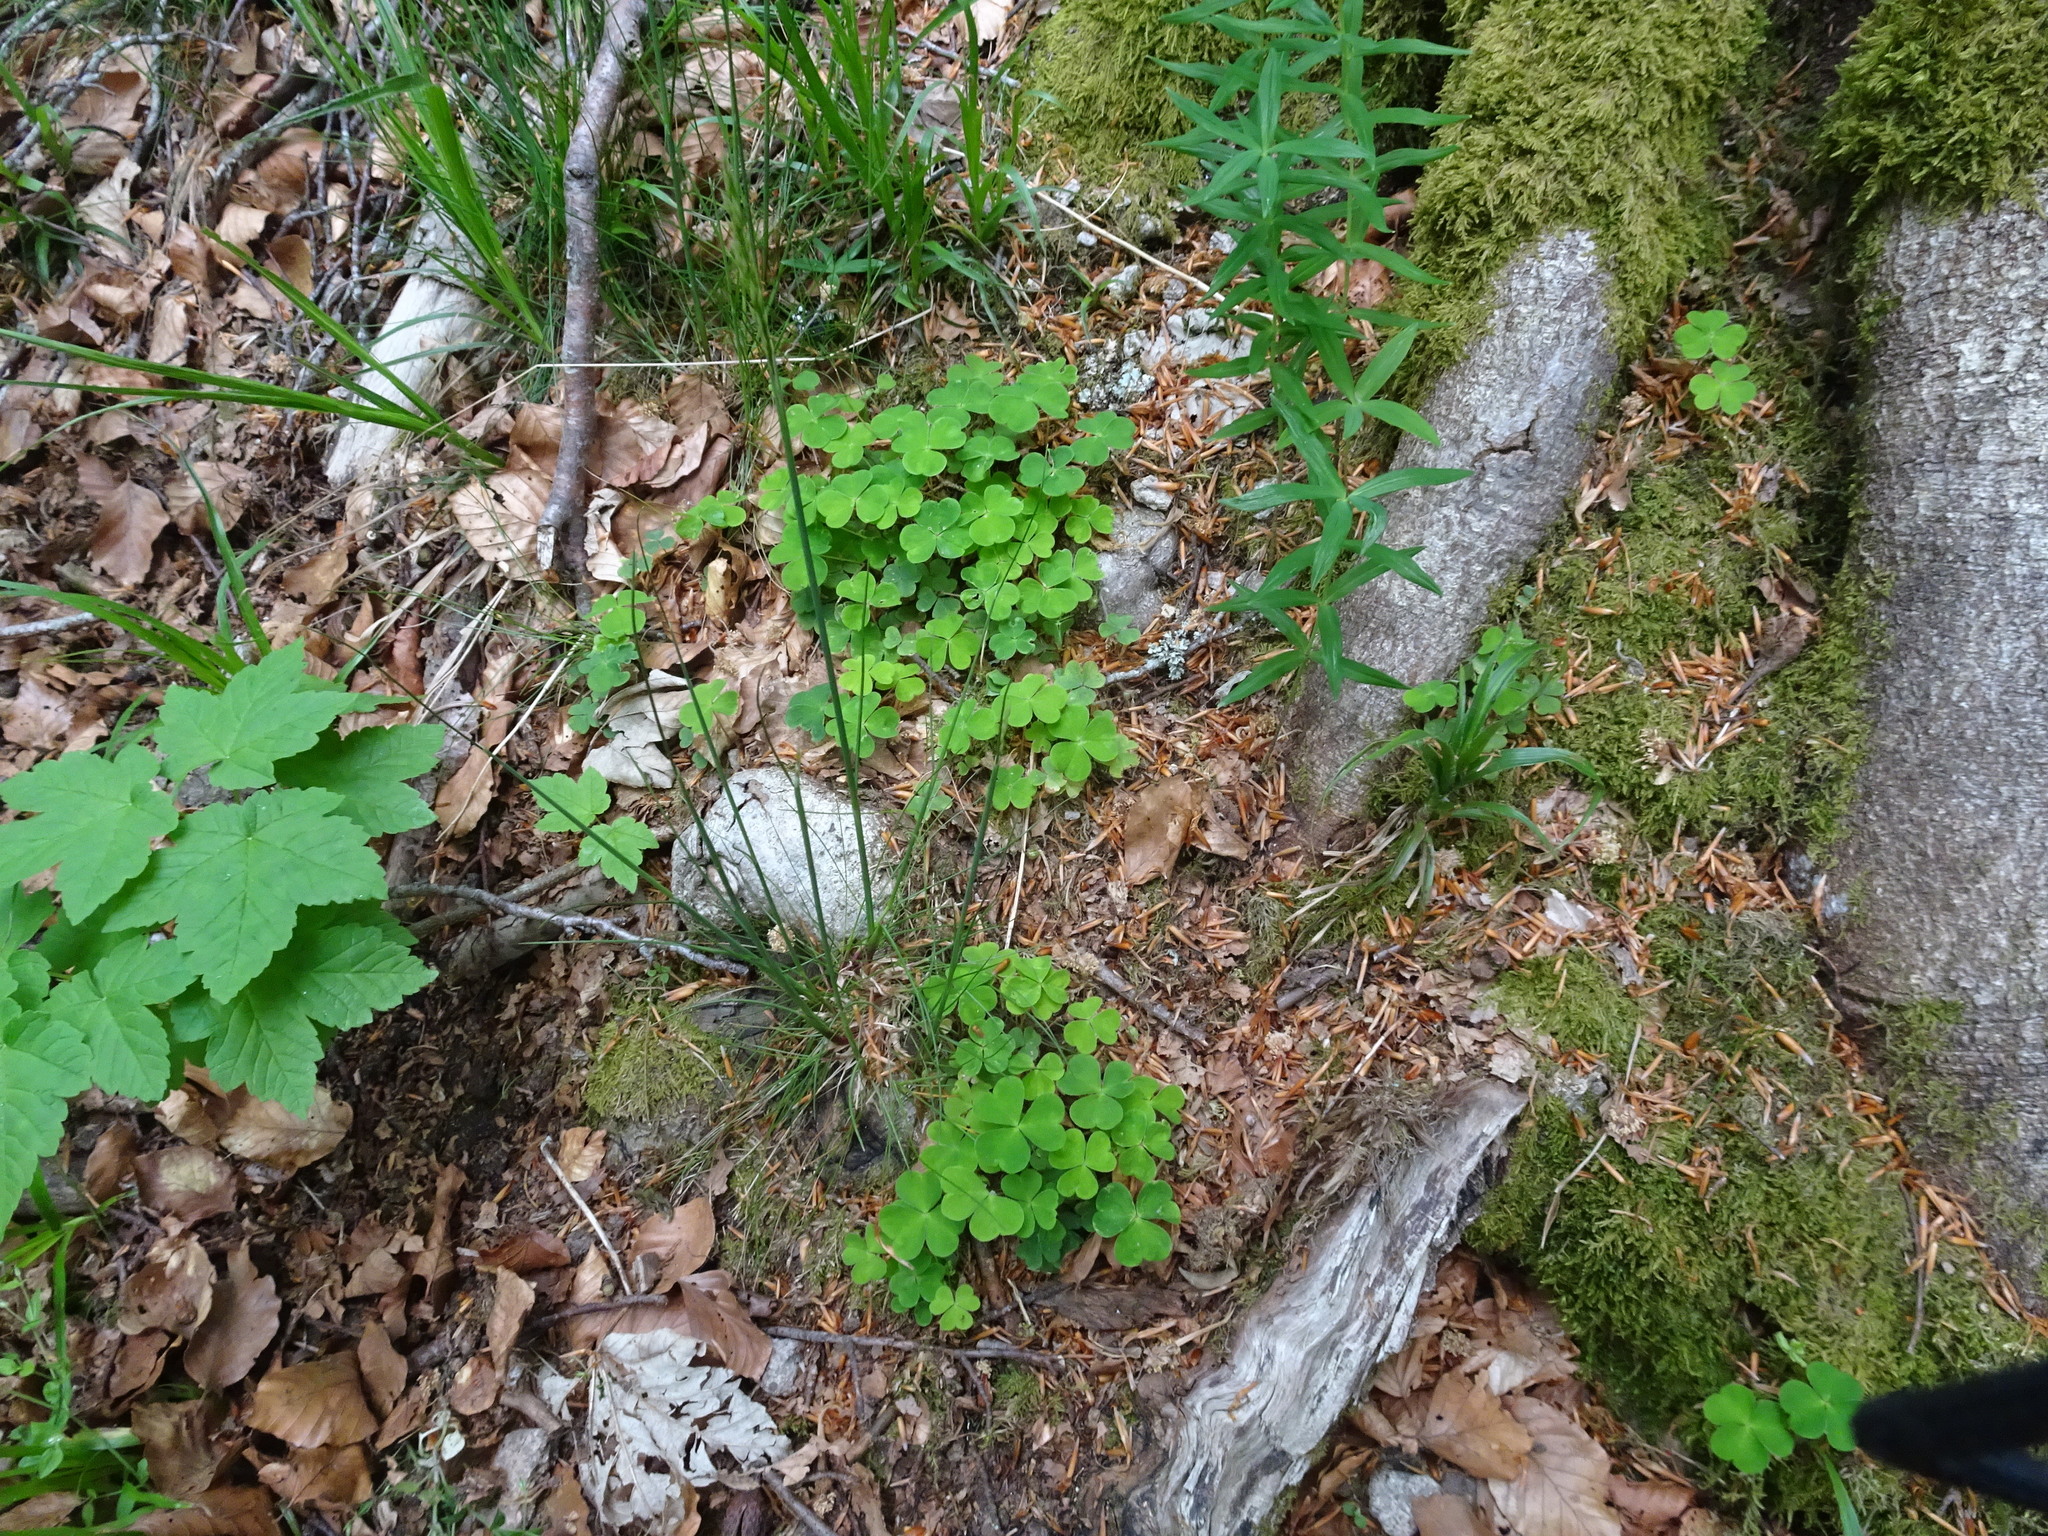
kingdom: Plantae
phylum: Tracheophyta
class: Magnoliopsida
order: Oxalidales
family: Oxalidaceae
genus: Oxalis
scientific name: Oxalis acetosella
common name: Wood-sorrel
